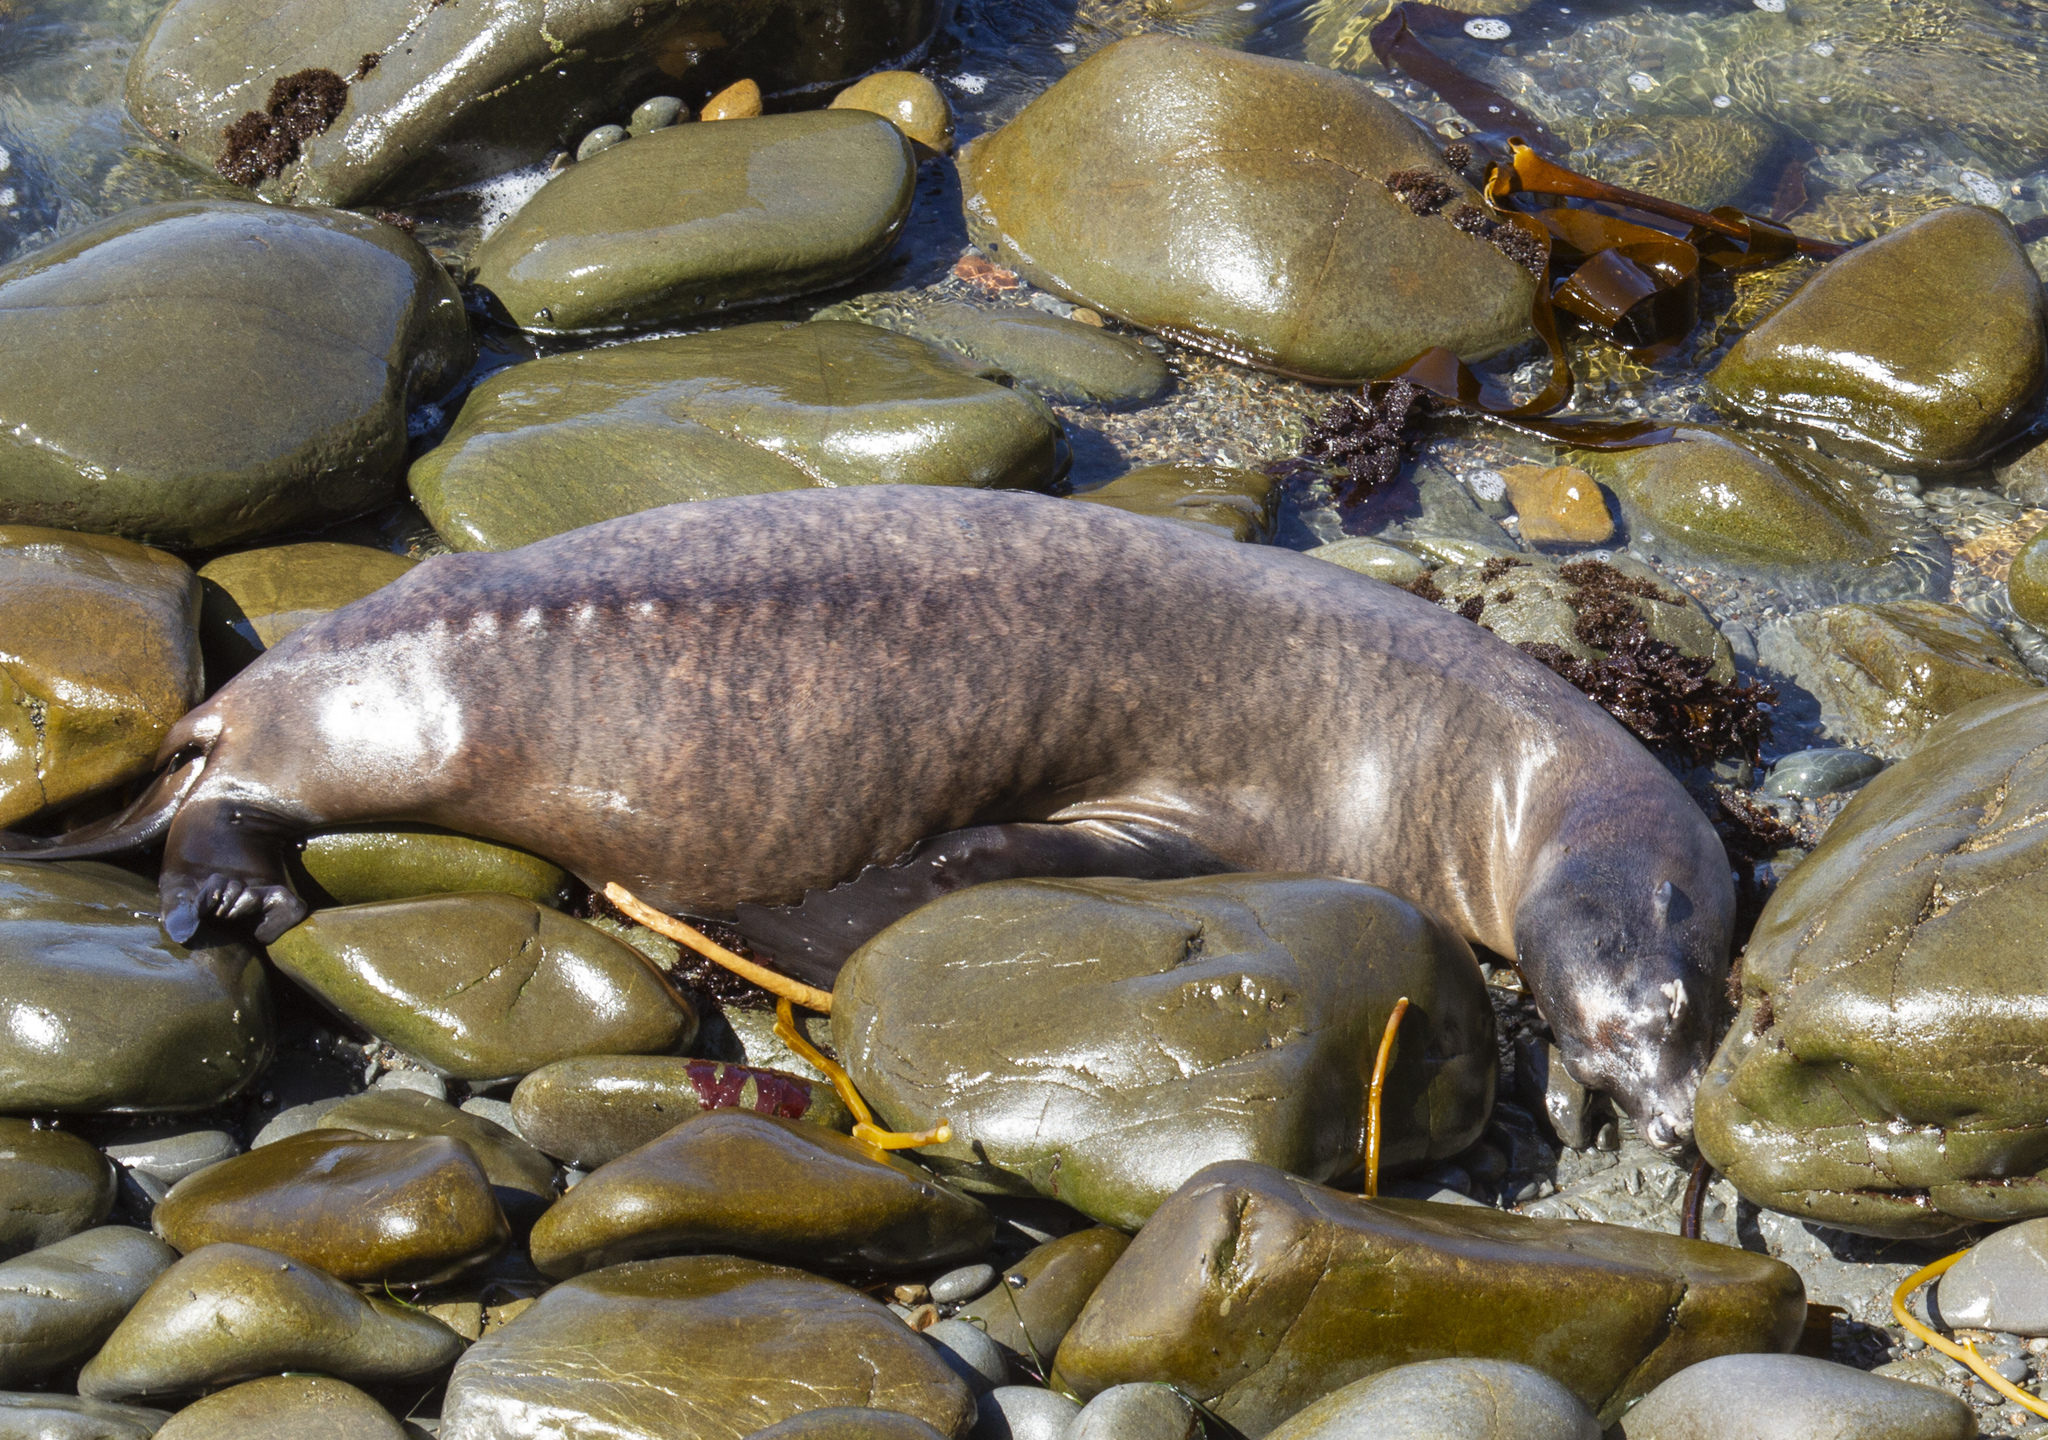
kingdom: Animalia
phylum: Chordata
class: Mammalia
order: Carnivora
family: Otariidae
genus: Zalophus
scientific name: Zalophus californianus
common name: California sea lion
